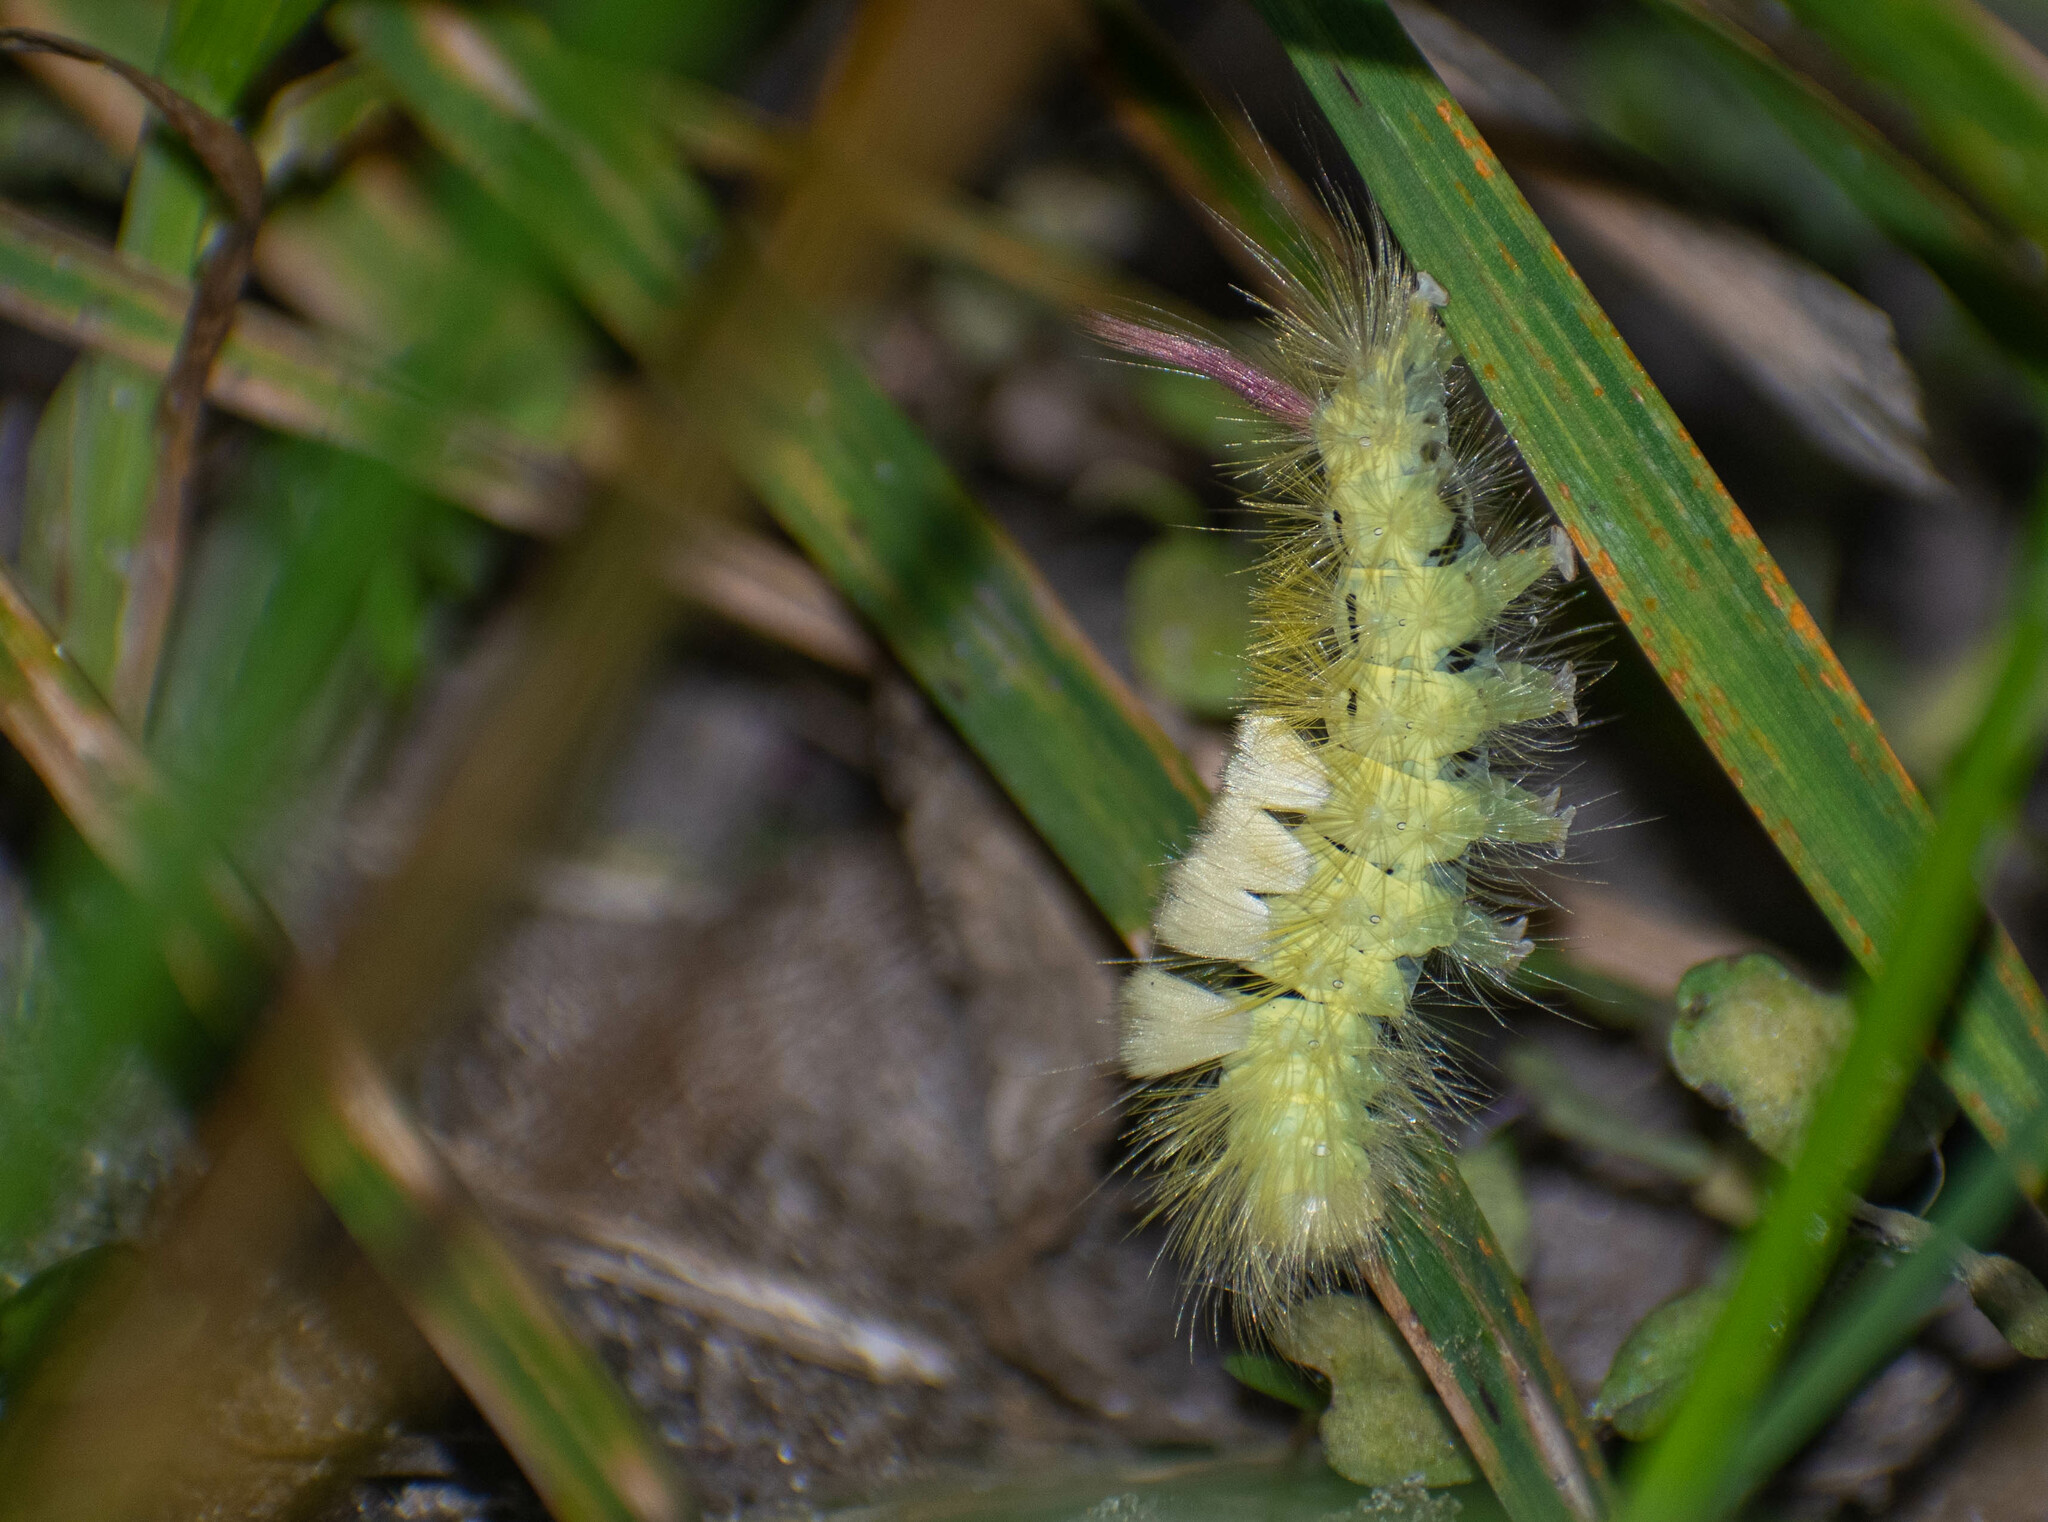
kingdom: Animalia
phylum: Arthropoda
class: Insecta
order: Lepidoptera
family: Erebidae
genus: Calliteara
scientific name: Calliteara pudibunda
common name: Pale tussock
